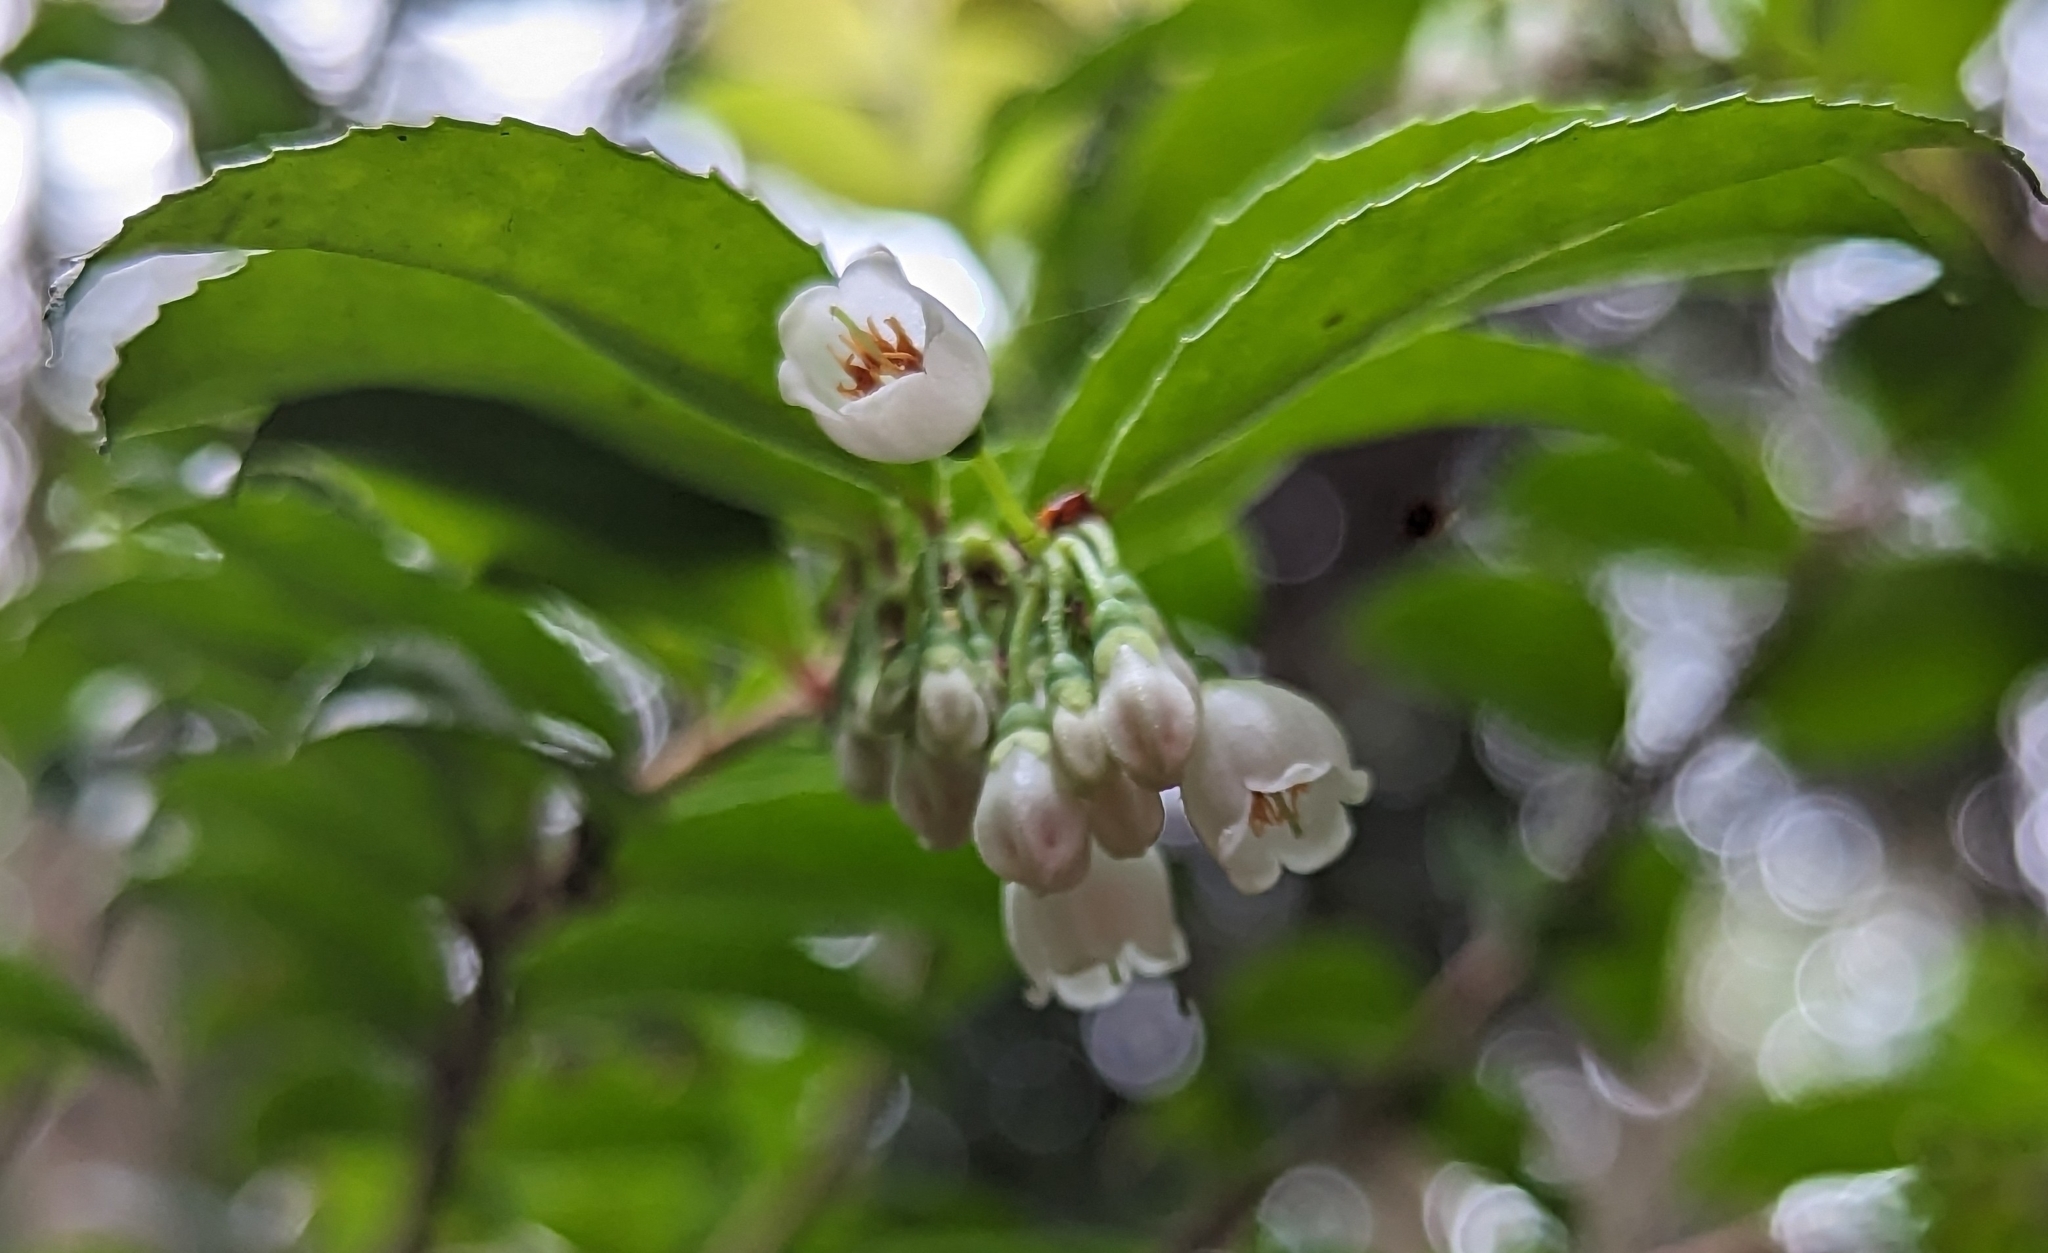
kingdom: Plantae
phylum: Tracheophyta
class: Magnoliopsida
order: Ericales
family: Ericaceae
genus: Vaccinium
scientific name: Vaccinium ovatum
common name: California-huckleberry
